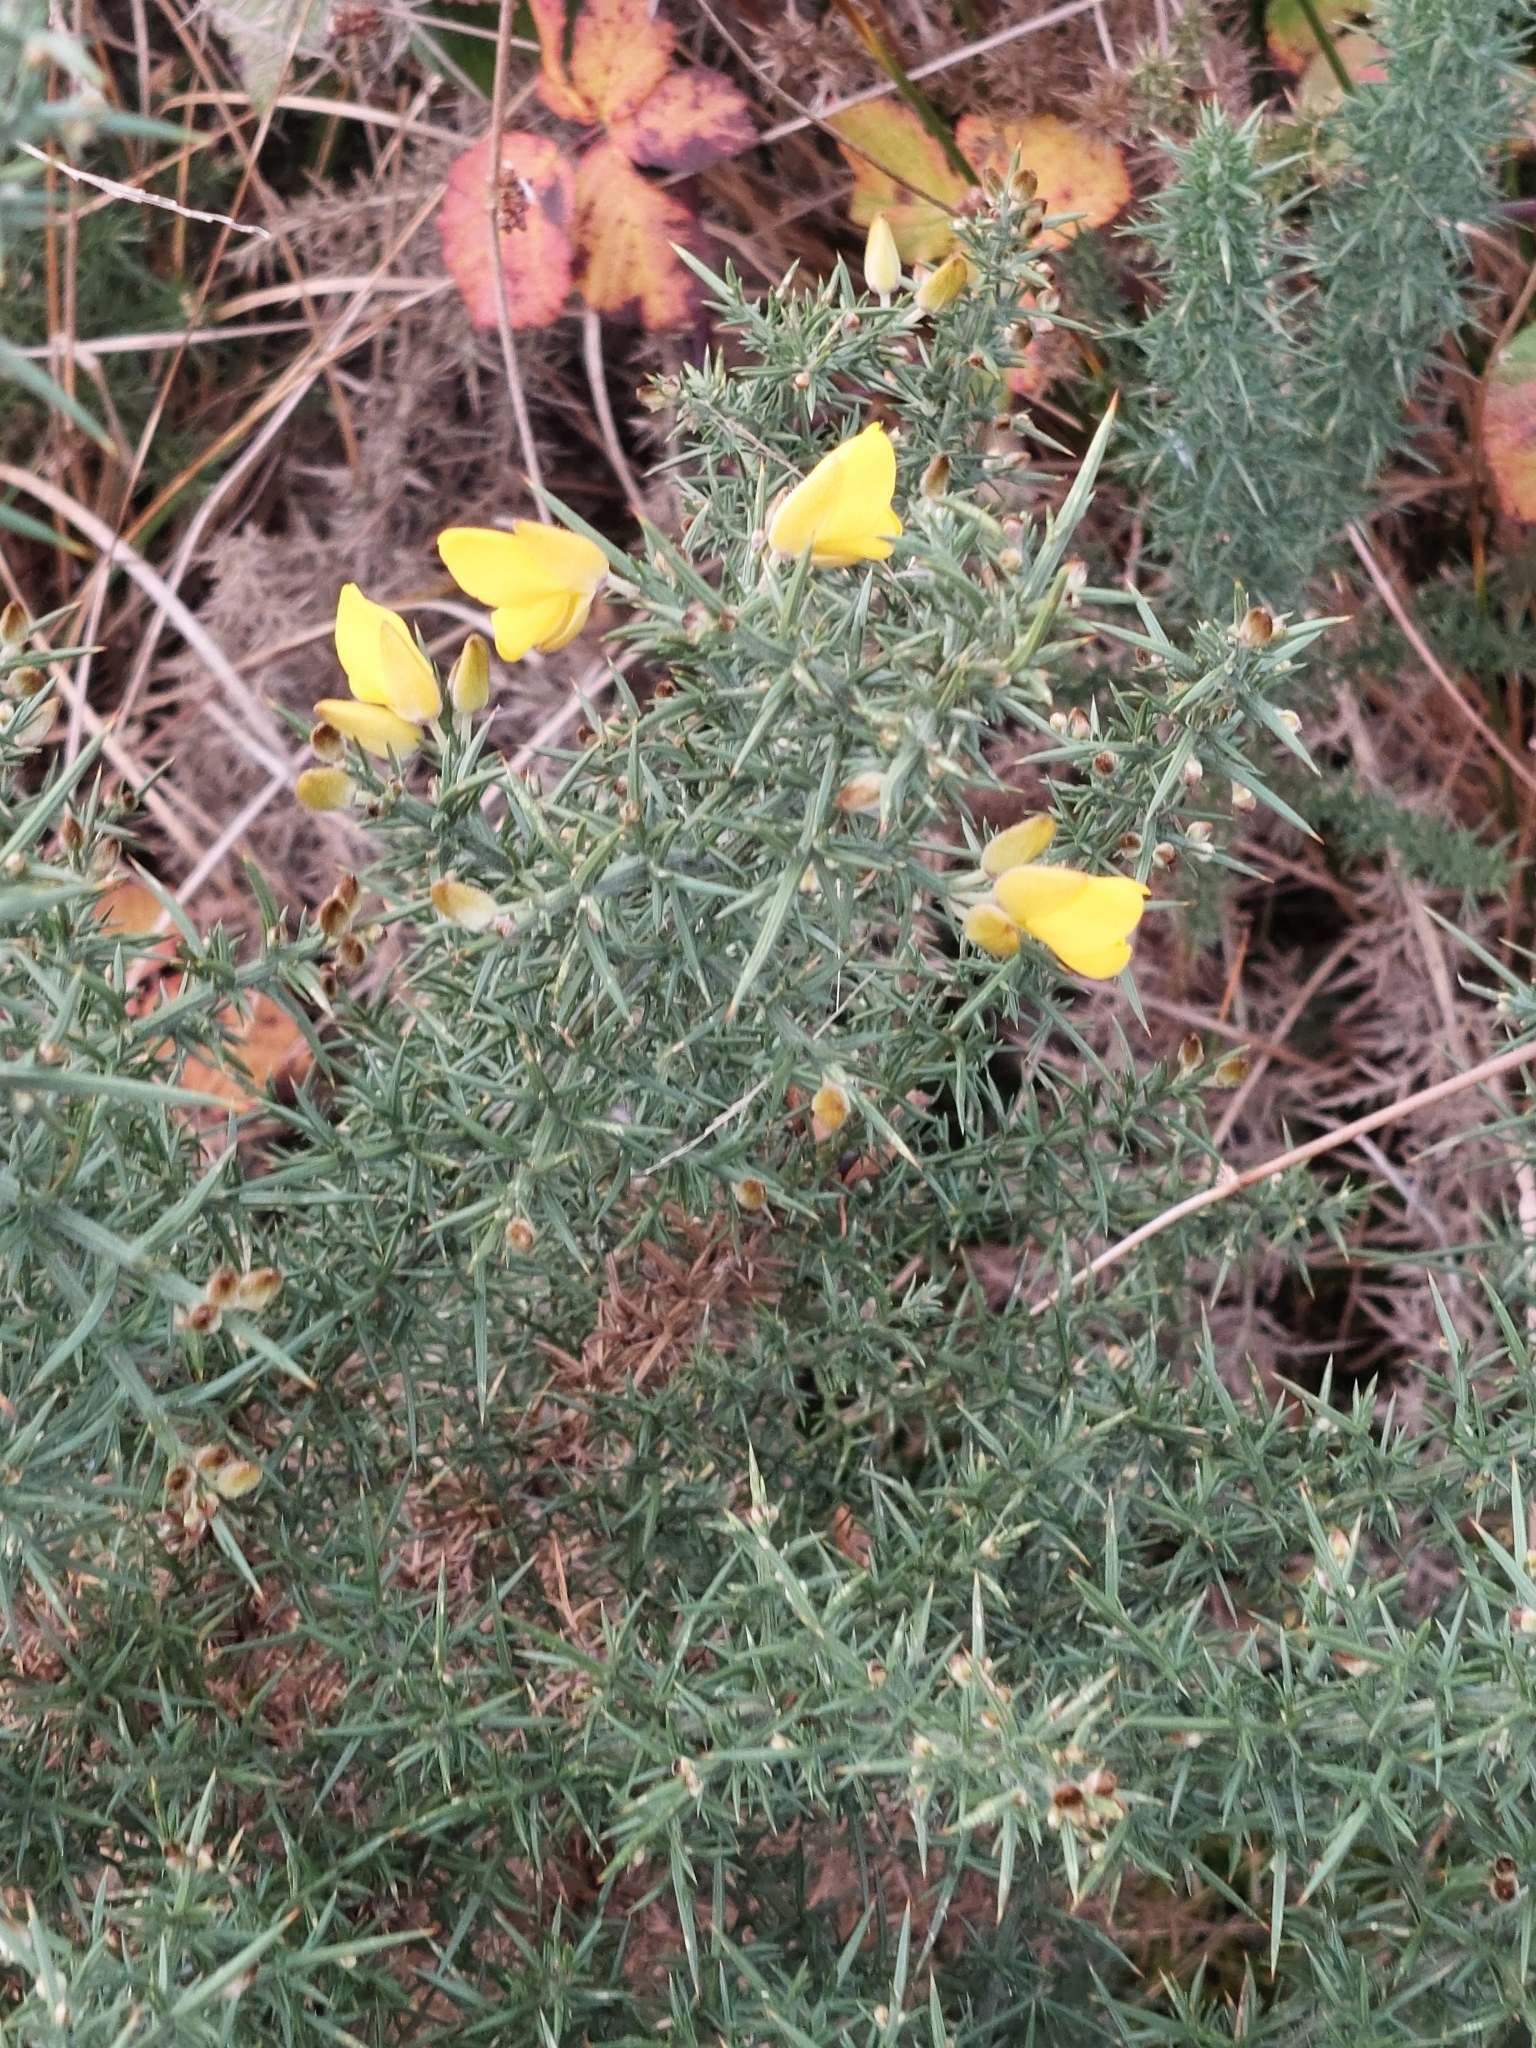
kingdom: Plantae
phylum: Tracheophyta
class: Magnoliopsida
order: Fabales
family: Fabaceae
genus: Ulex
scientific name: Ulex europaeus
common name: Common gorse
